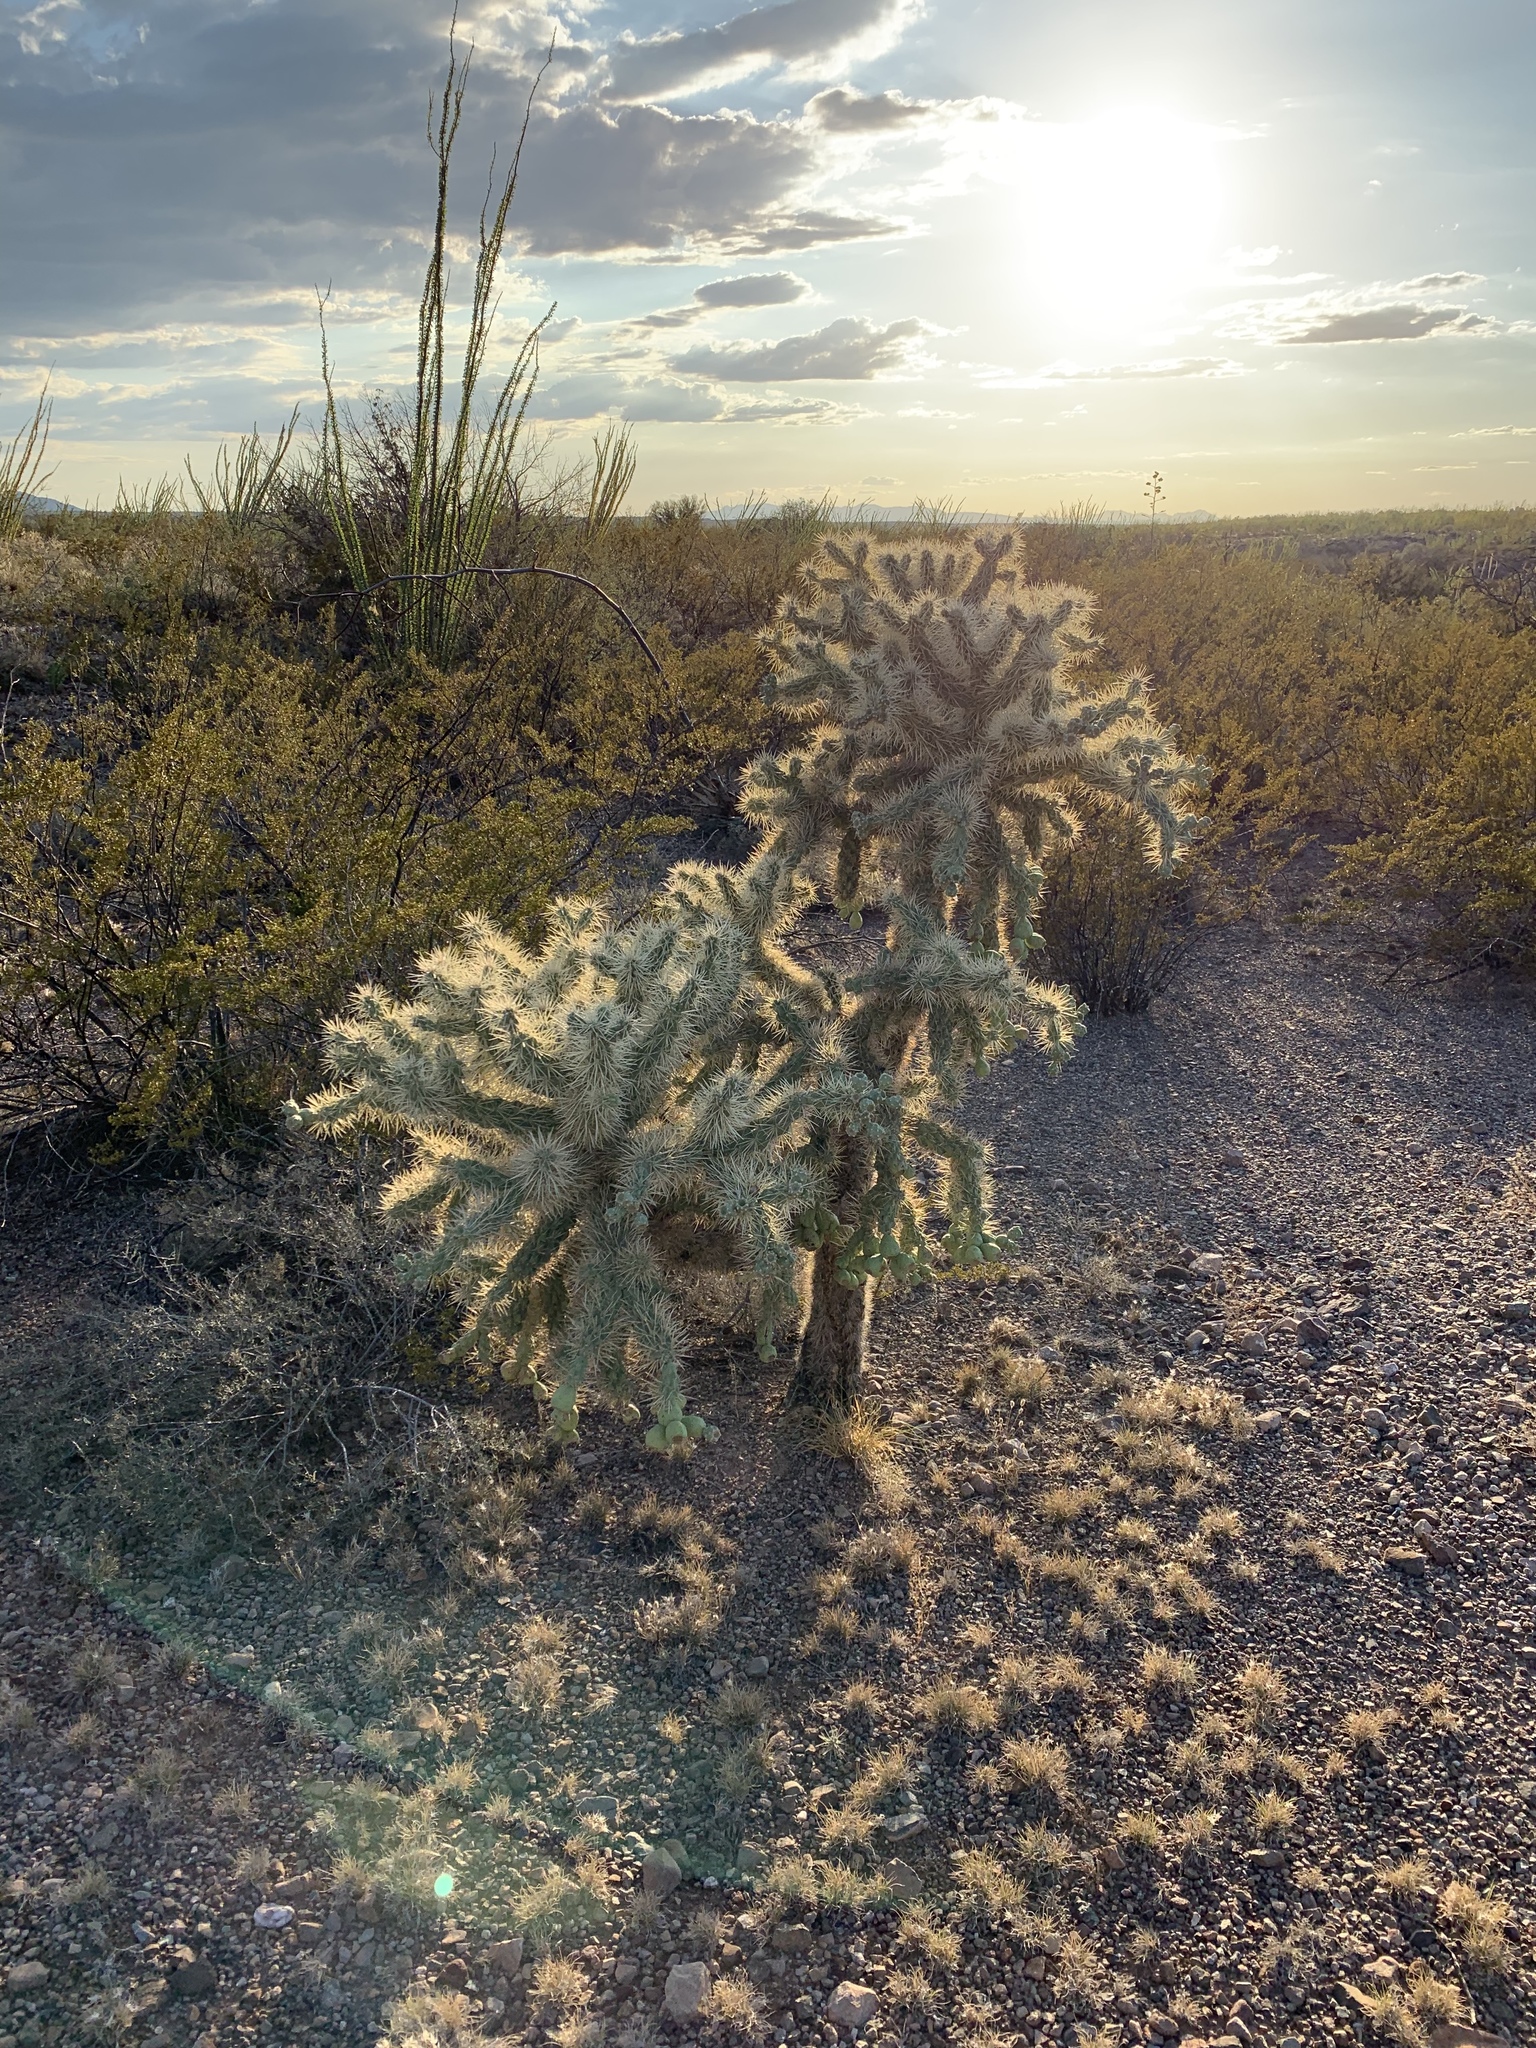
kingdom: Plantae
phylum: Tracheophyta
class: Magnoliopsida
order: Caryophyllales
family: Cactaceae
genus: Cylindropuntia
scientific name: Cylindropuntia fulgida
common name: Jumping cholla
